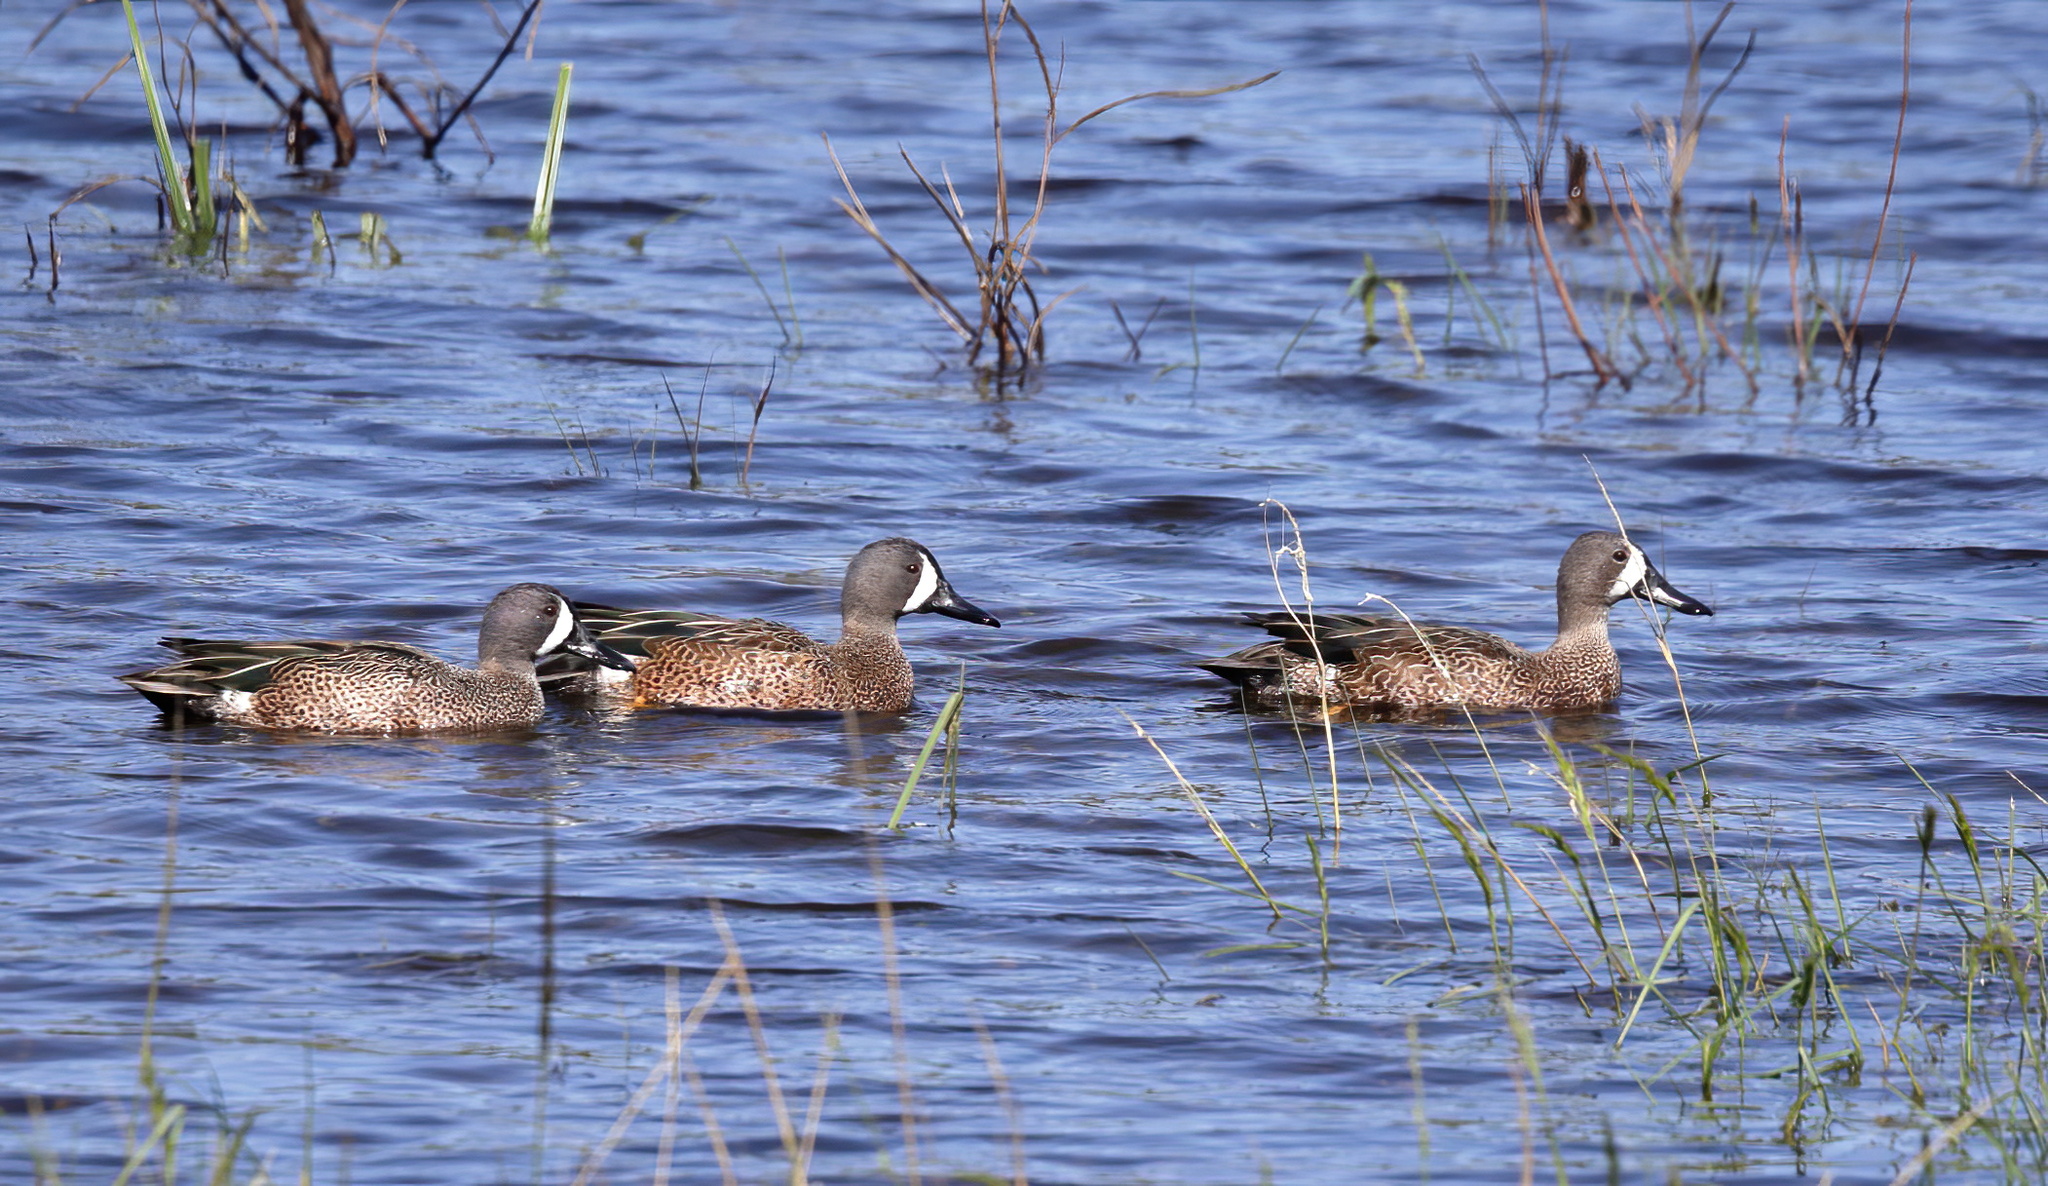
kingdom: Animalia
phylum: Chordata
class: Aves
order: Anseriformes
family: Anatidae
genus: Spatula
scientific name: Spatula discors
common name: Blue-winged teal
